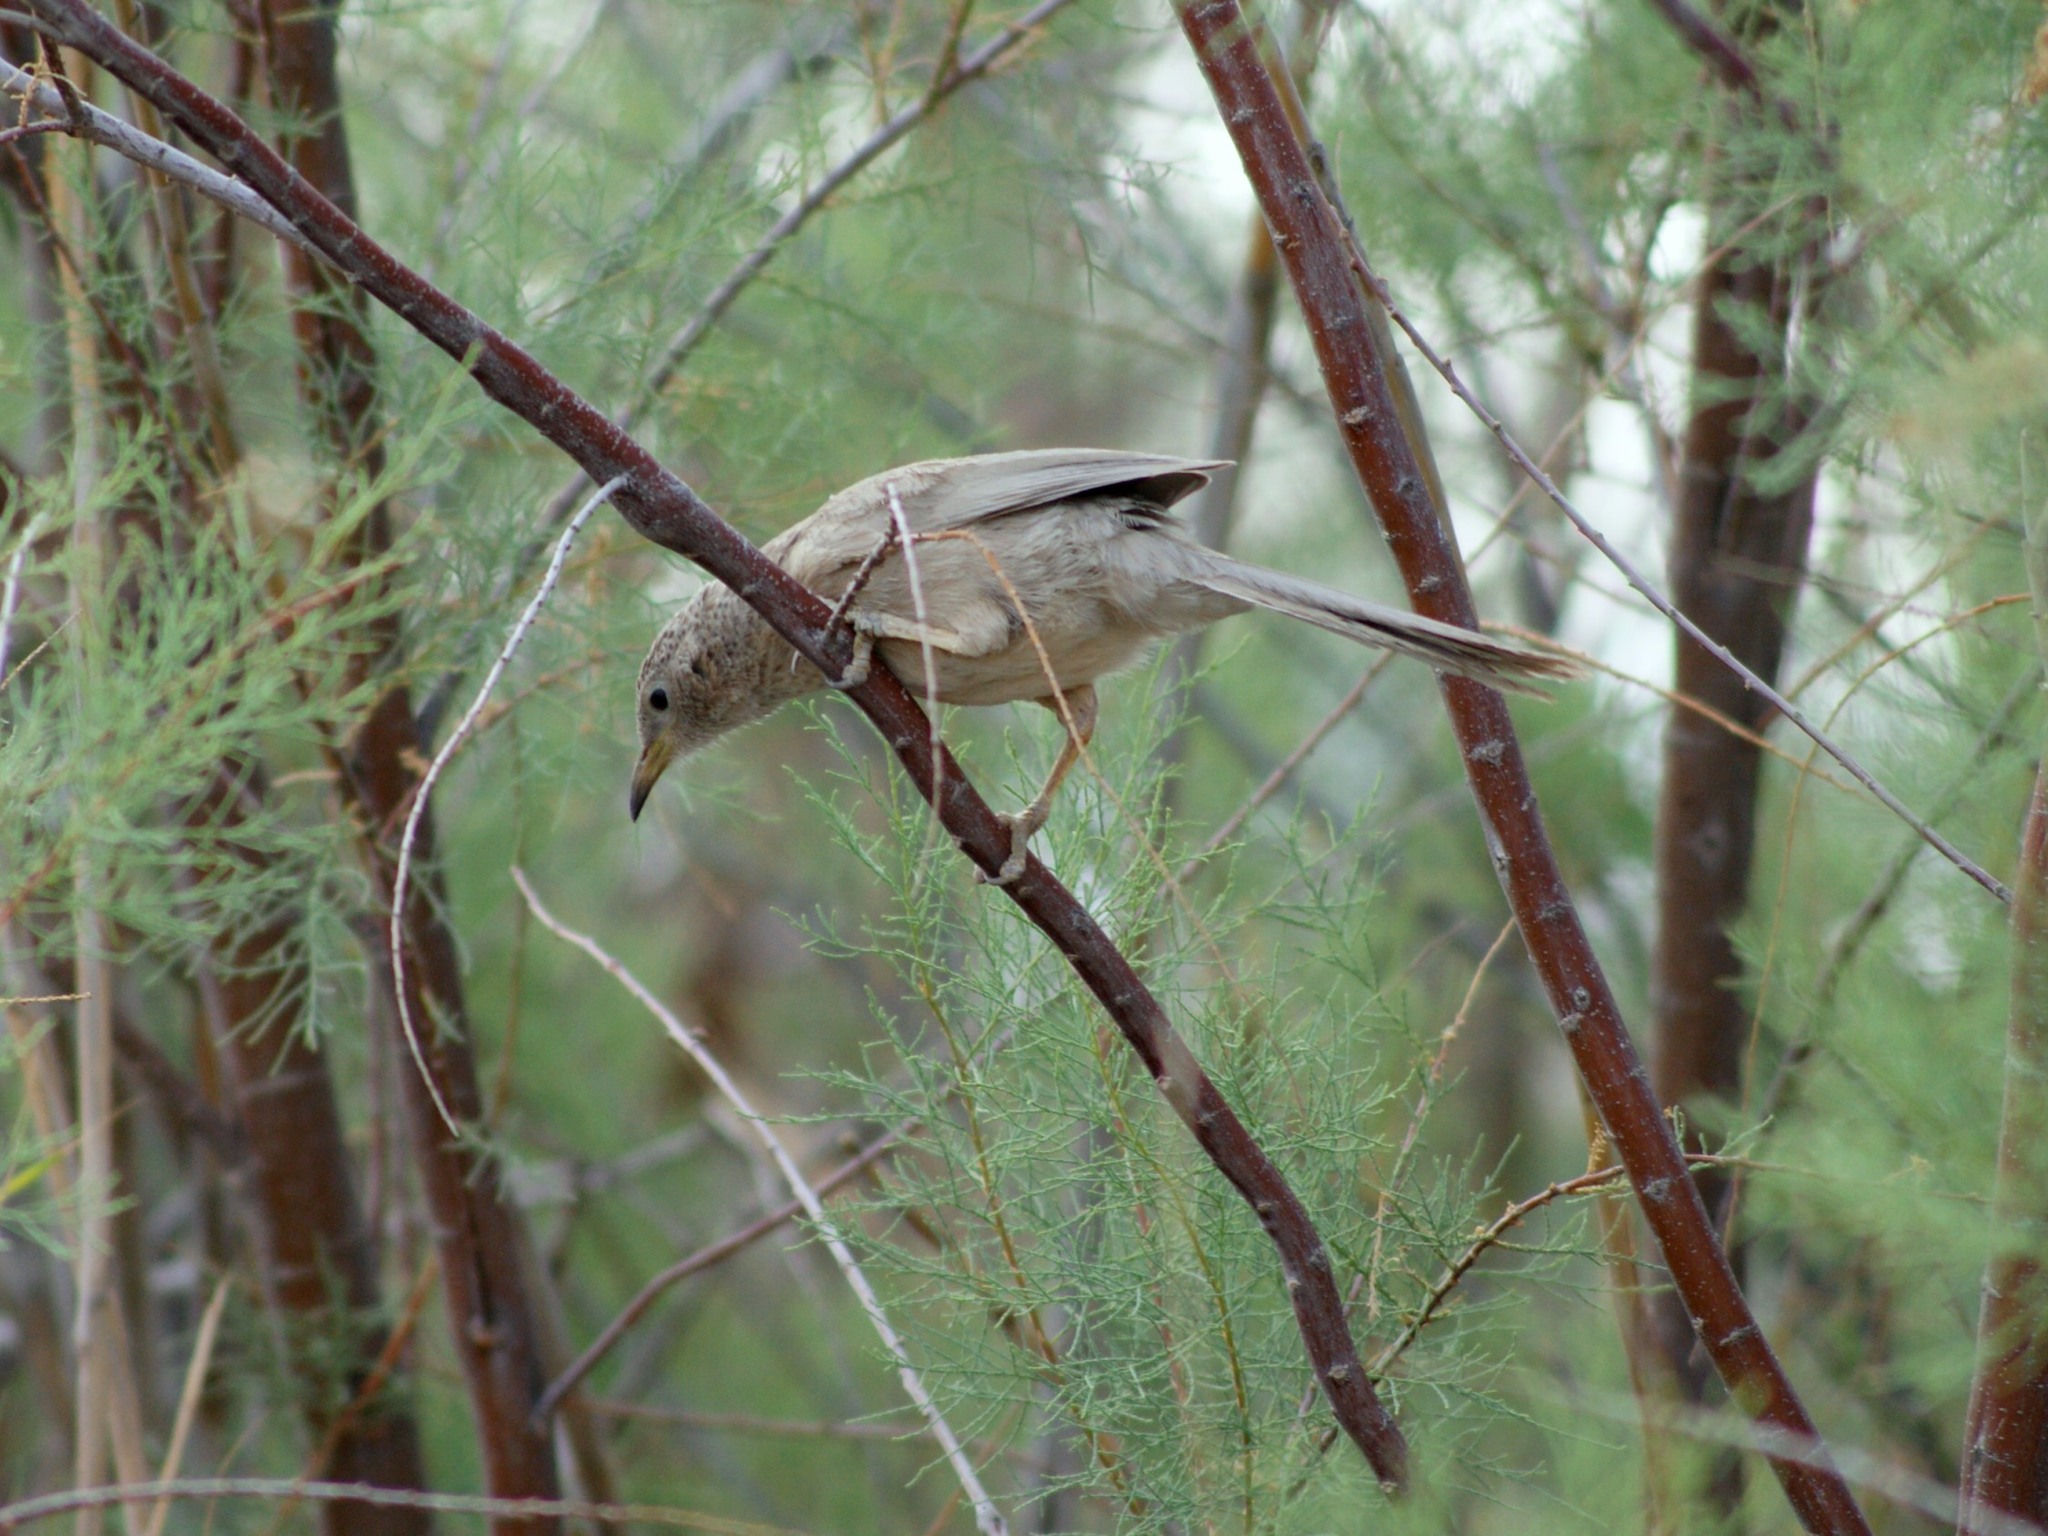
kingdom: Animalia
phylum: Chordata
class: Aves
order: Passeriformes
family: Leiothrichidae
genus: Turdoides
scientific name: Turdoides squamiceps
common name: Arabian babbler
